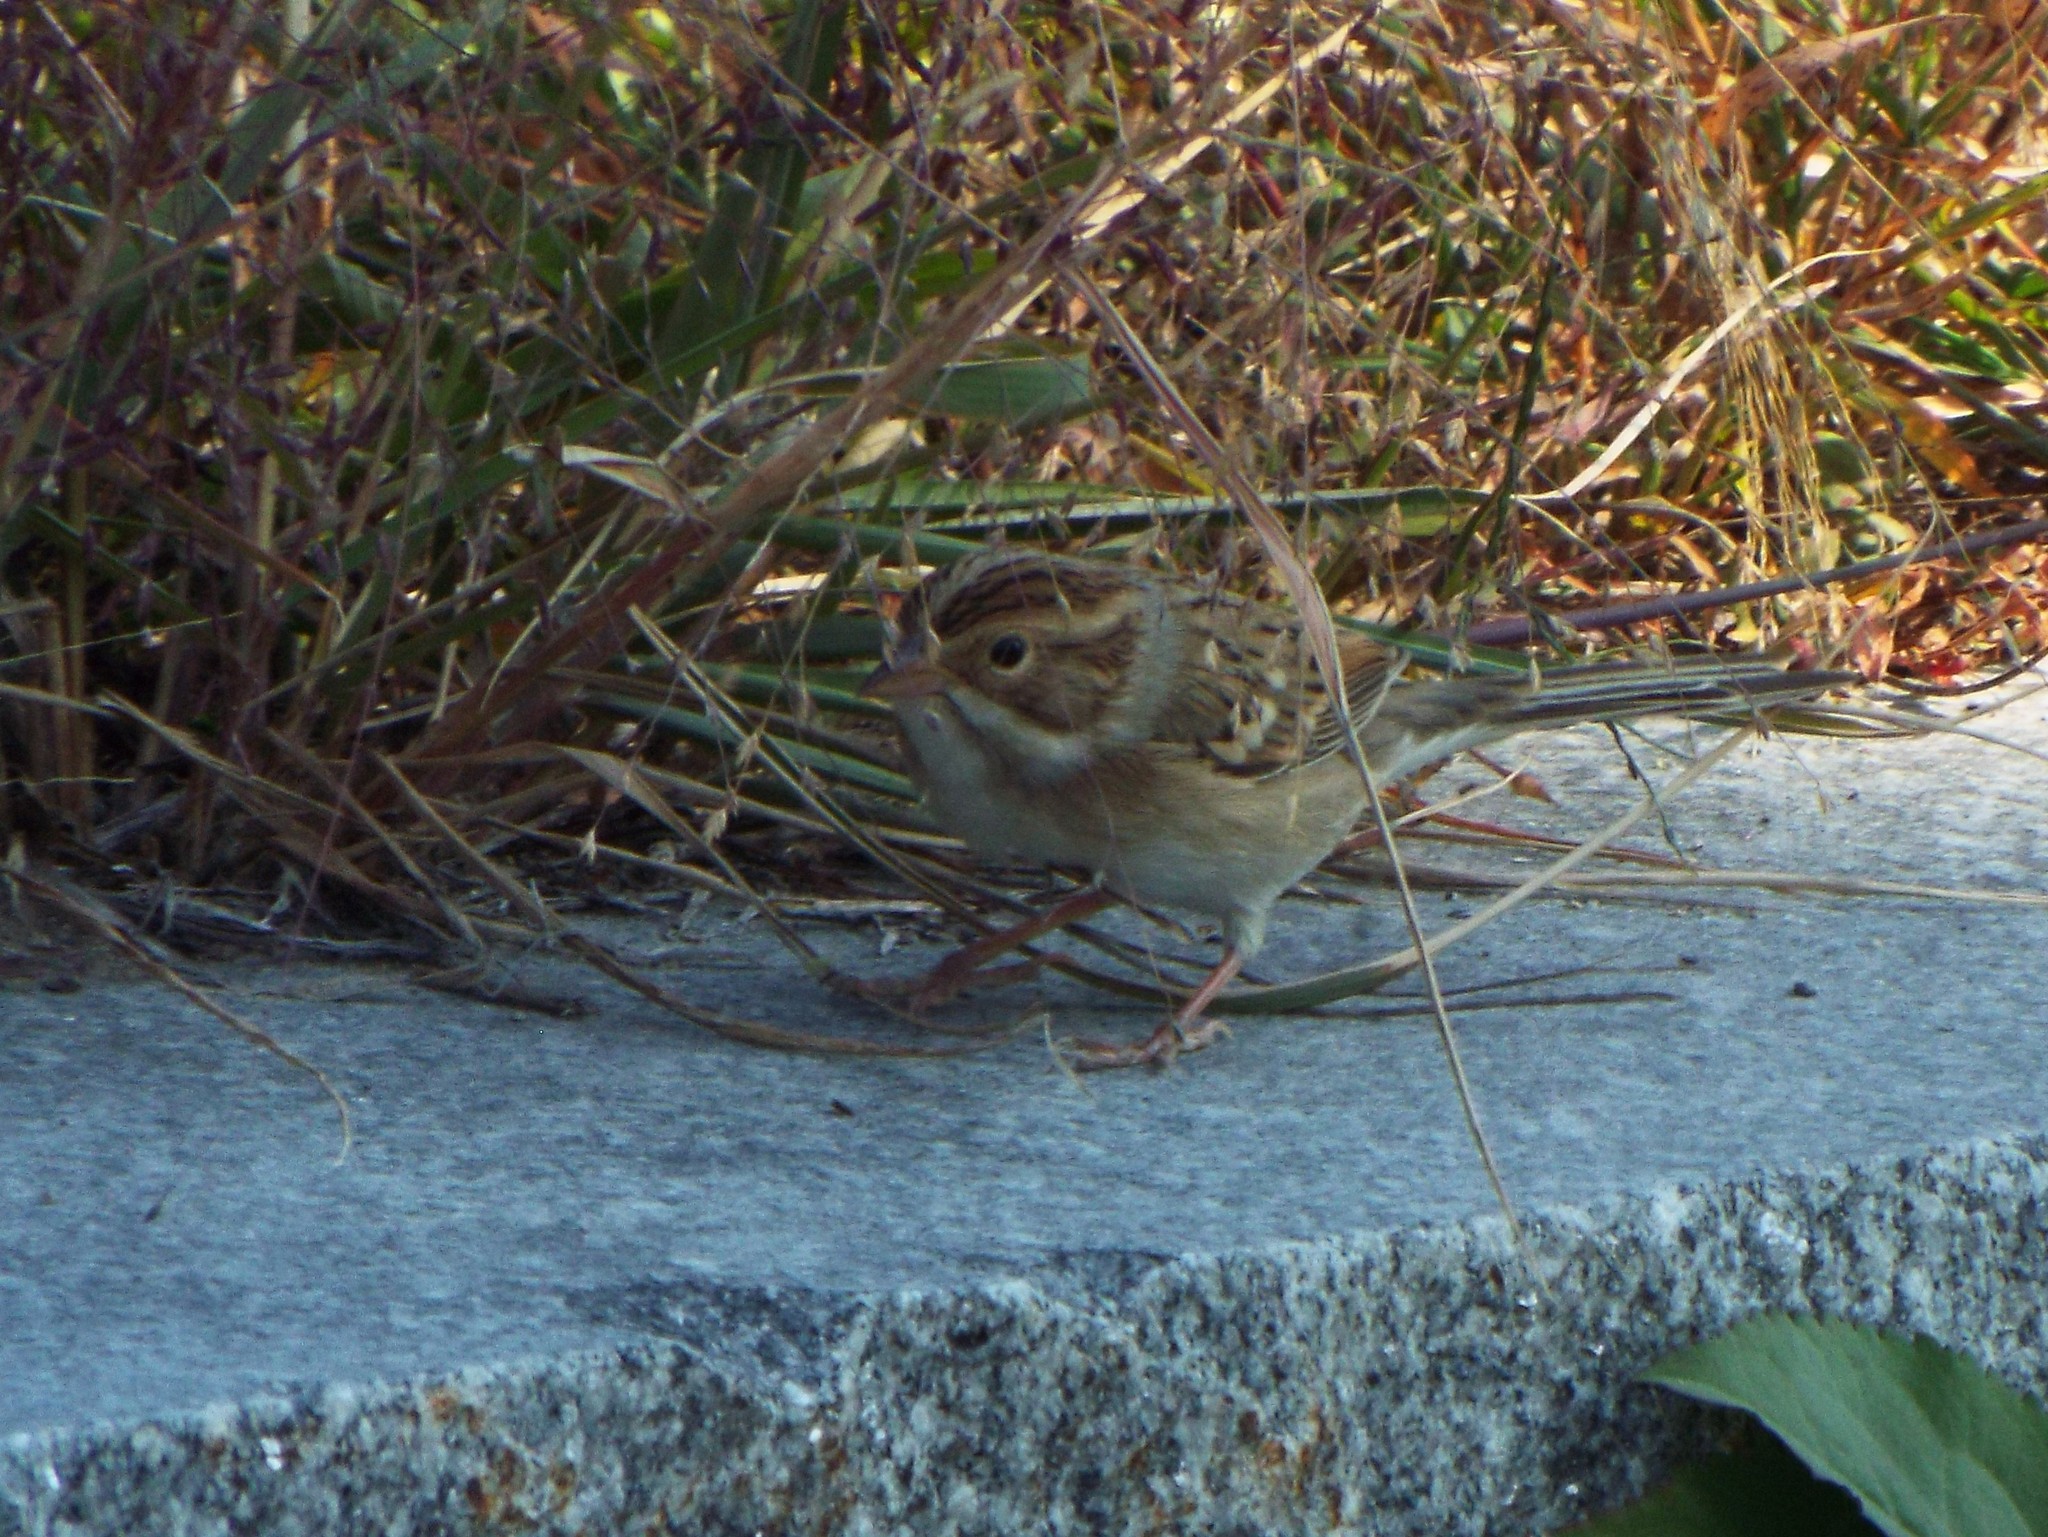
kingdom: Animalia
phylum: Chordata
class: Aves
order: Passeriformes
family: Passerellidae
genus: Spizella
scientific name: Spizella pallida
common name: Clay-colored sparrow
